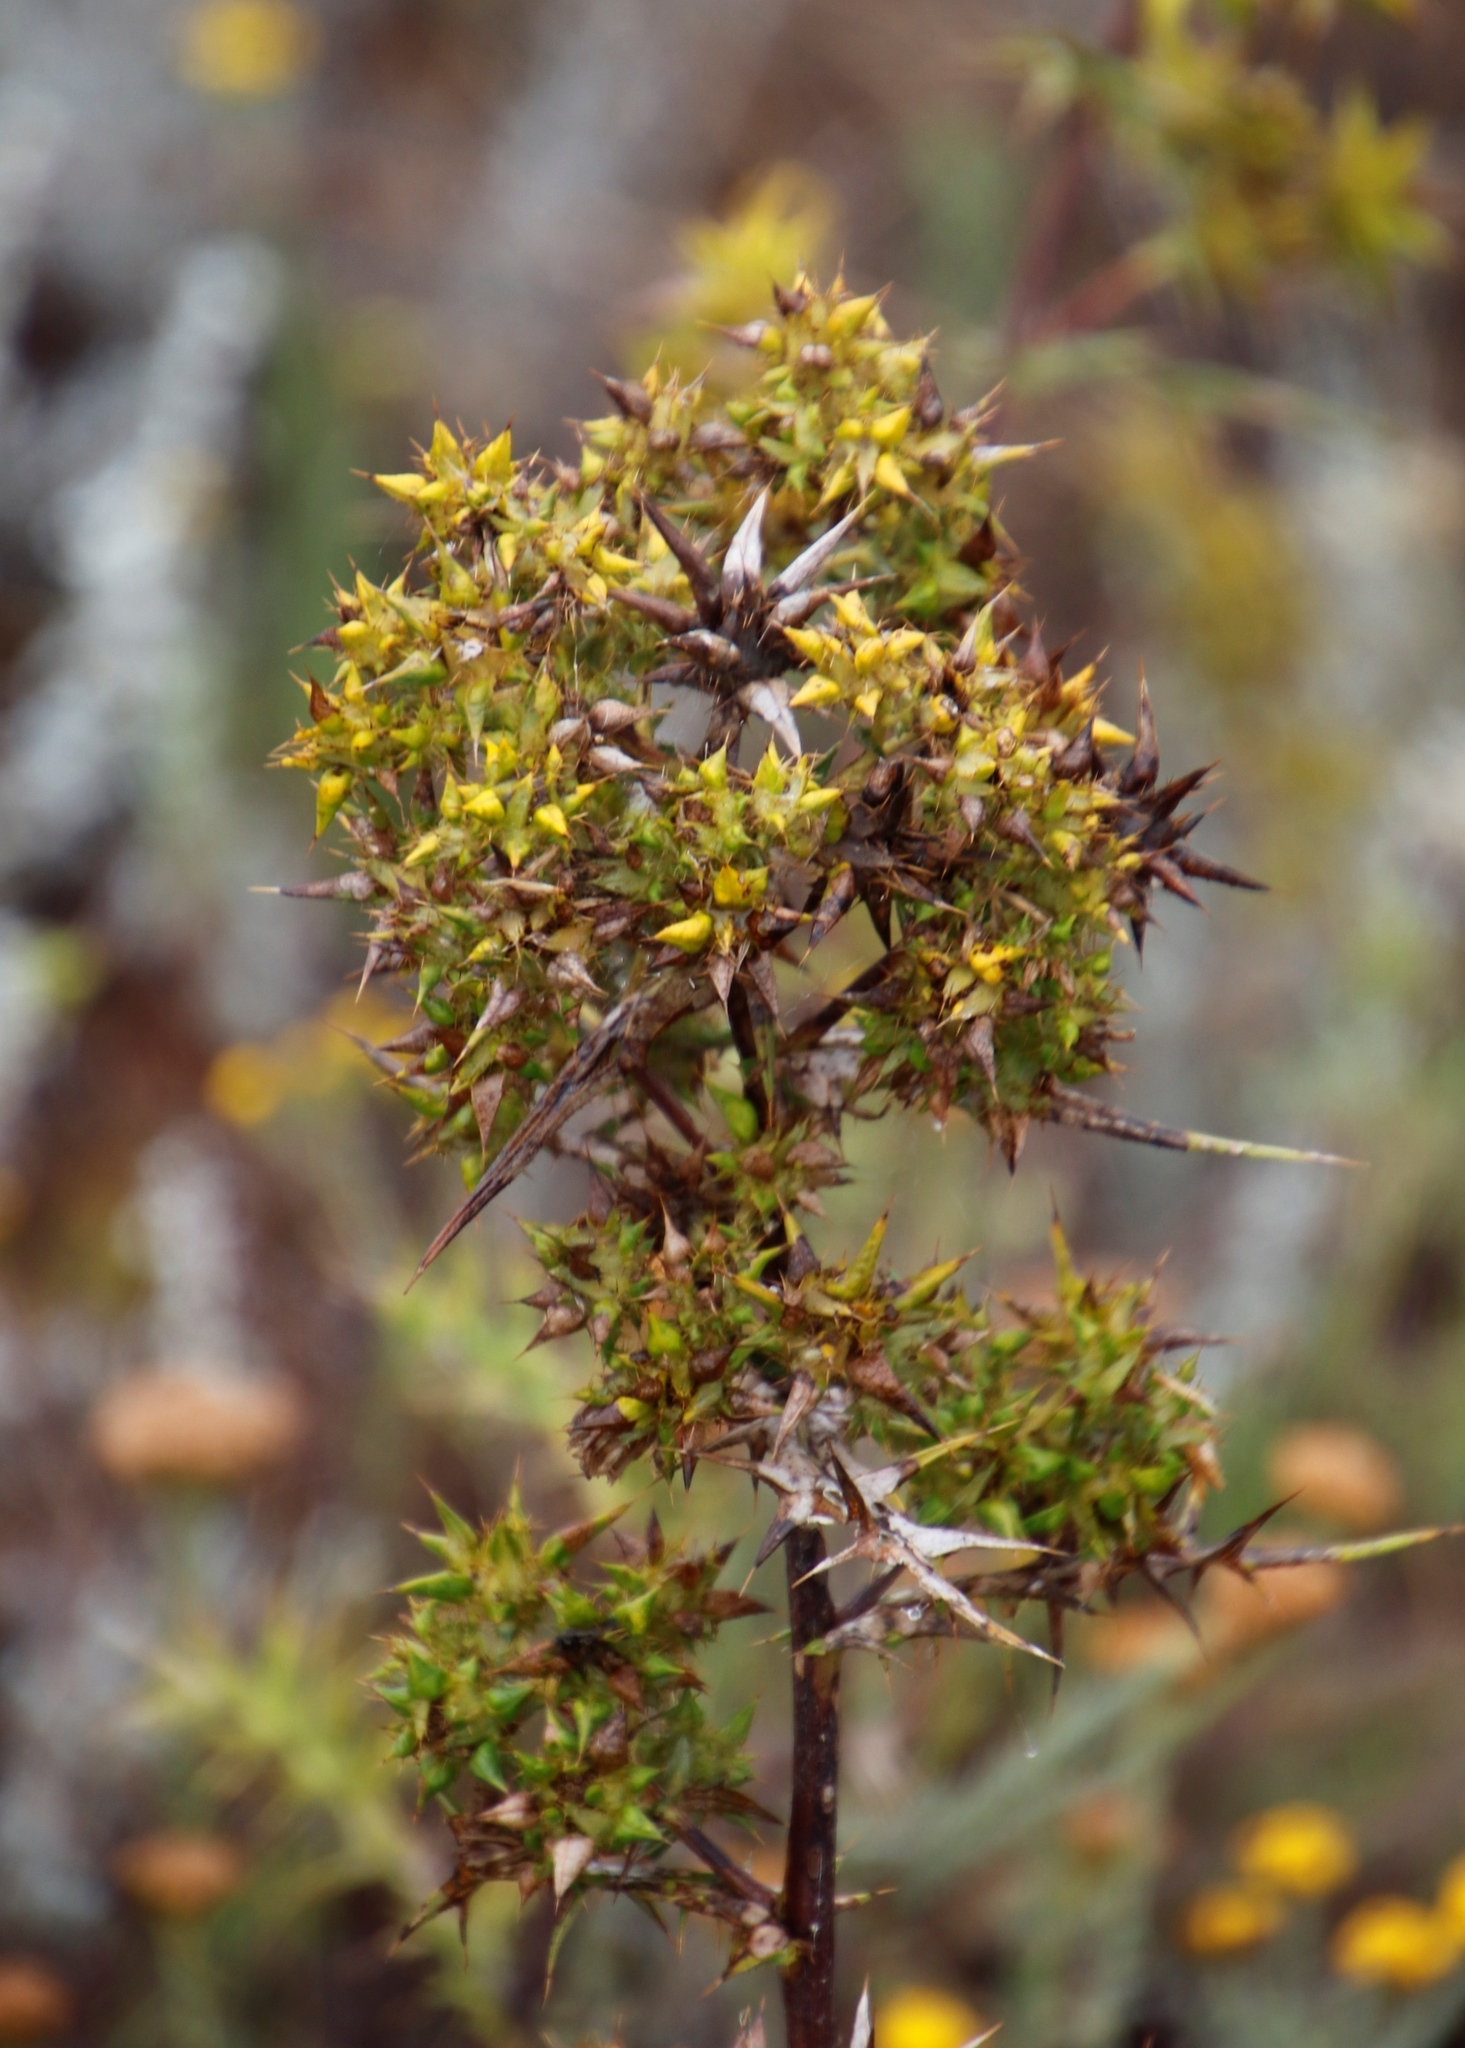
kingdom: Plantae
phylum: Tracheophyta
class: Magnoliopsida
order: Asterales
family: Asteraceae
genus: Berkheya
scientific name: Berkheya rigida
